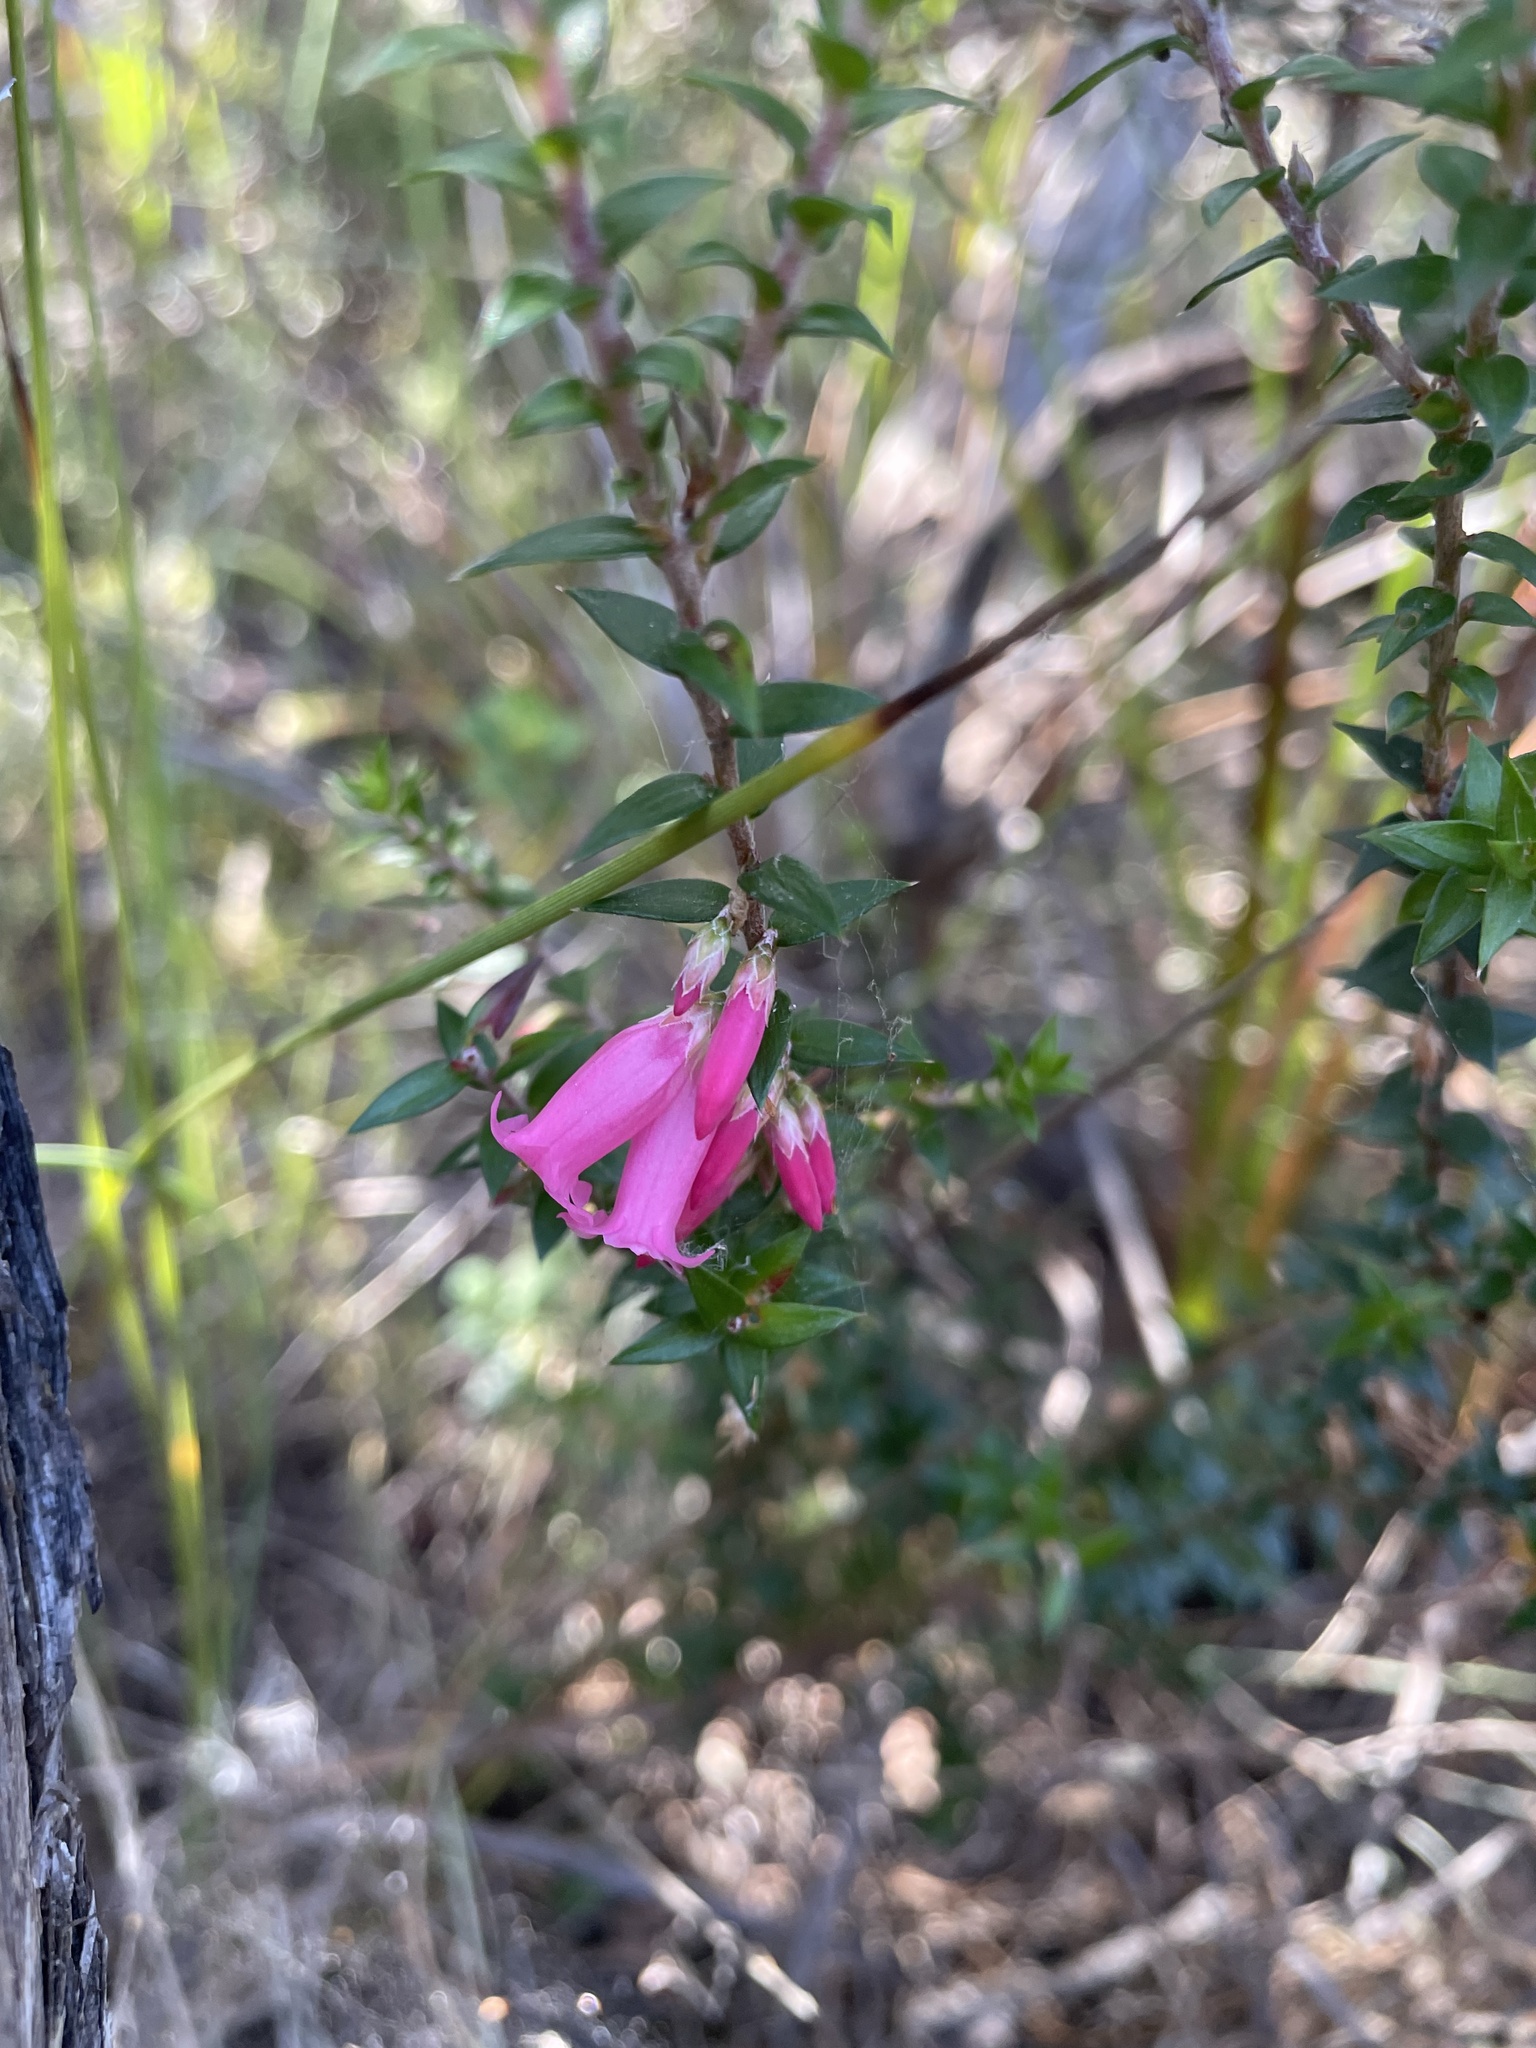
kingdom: Plantae
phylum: Tracheophyta
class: Magnoliopsida
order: Ericales
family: Ericaceae
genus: Epacris
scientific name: Epacris impressa
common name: Common-heath
